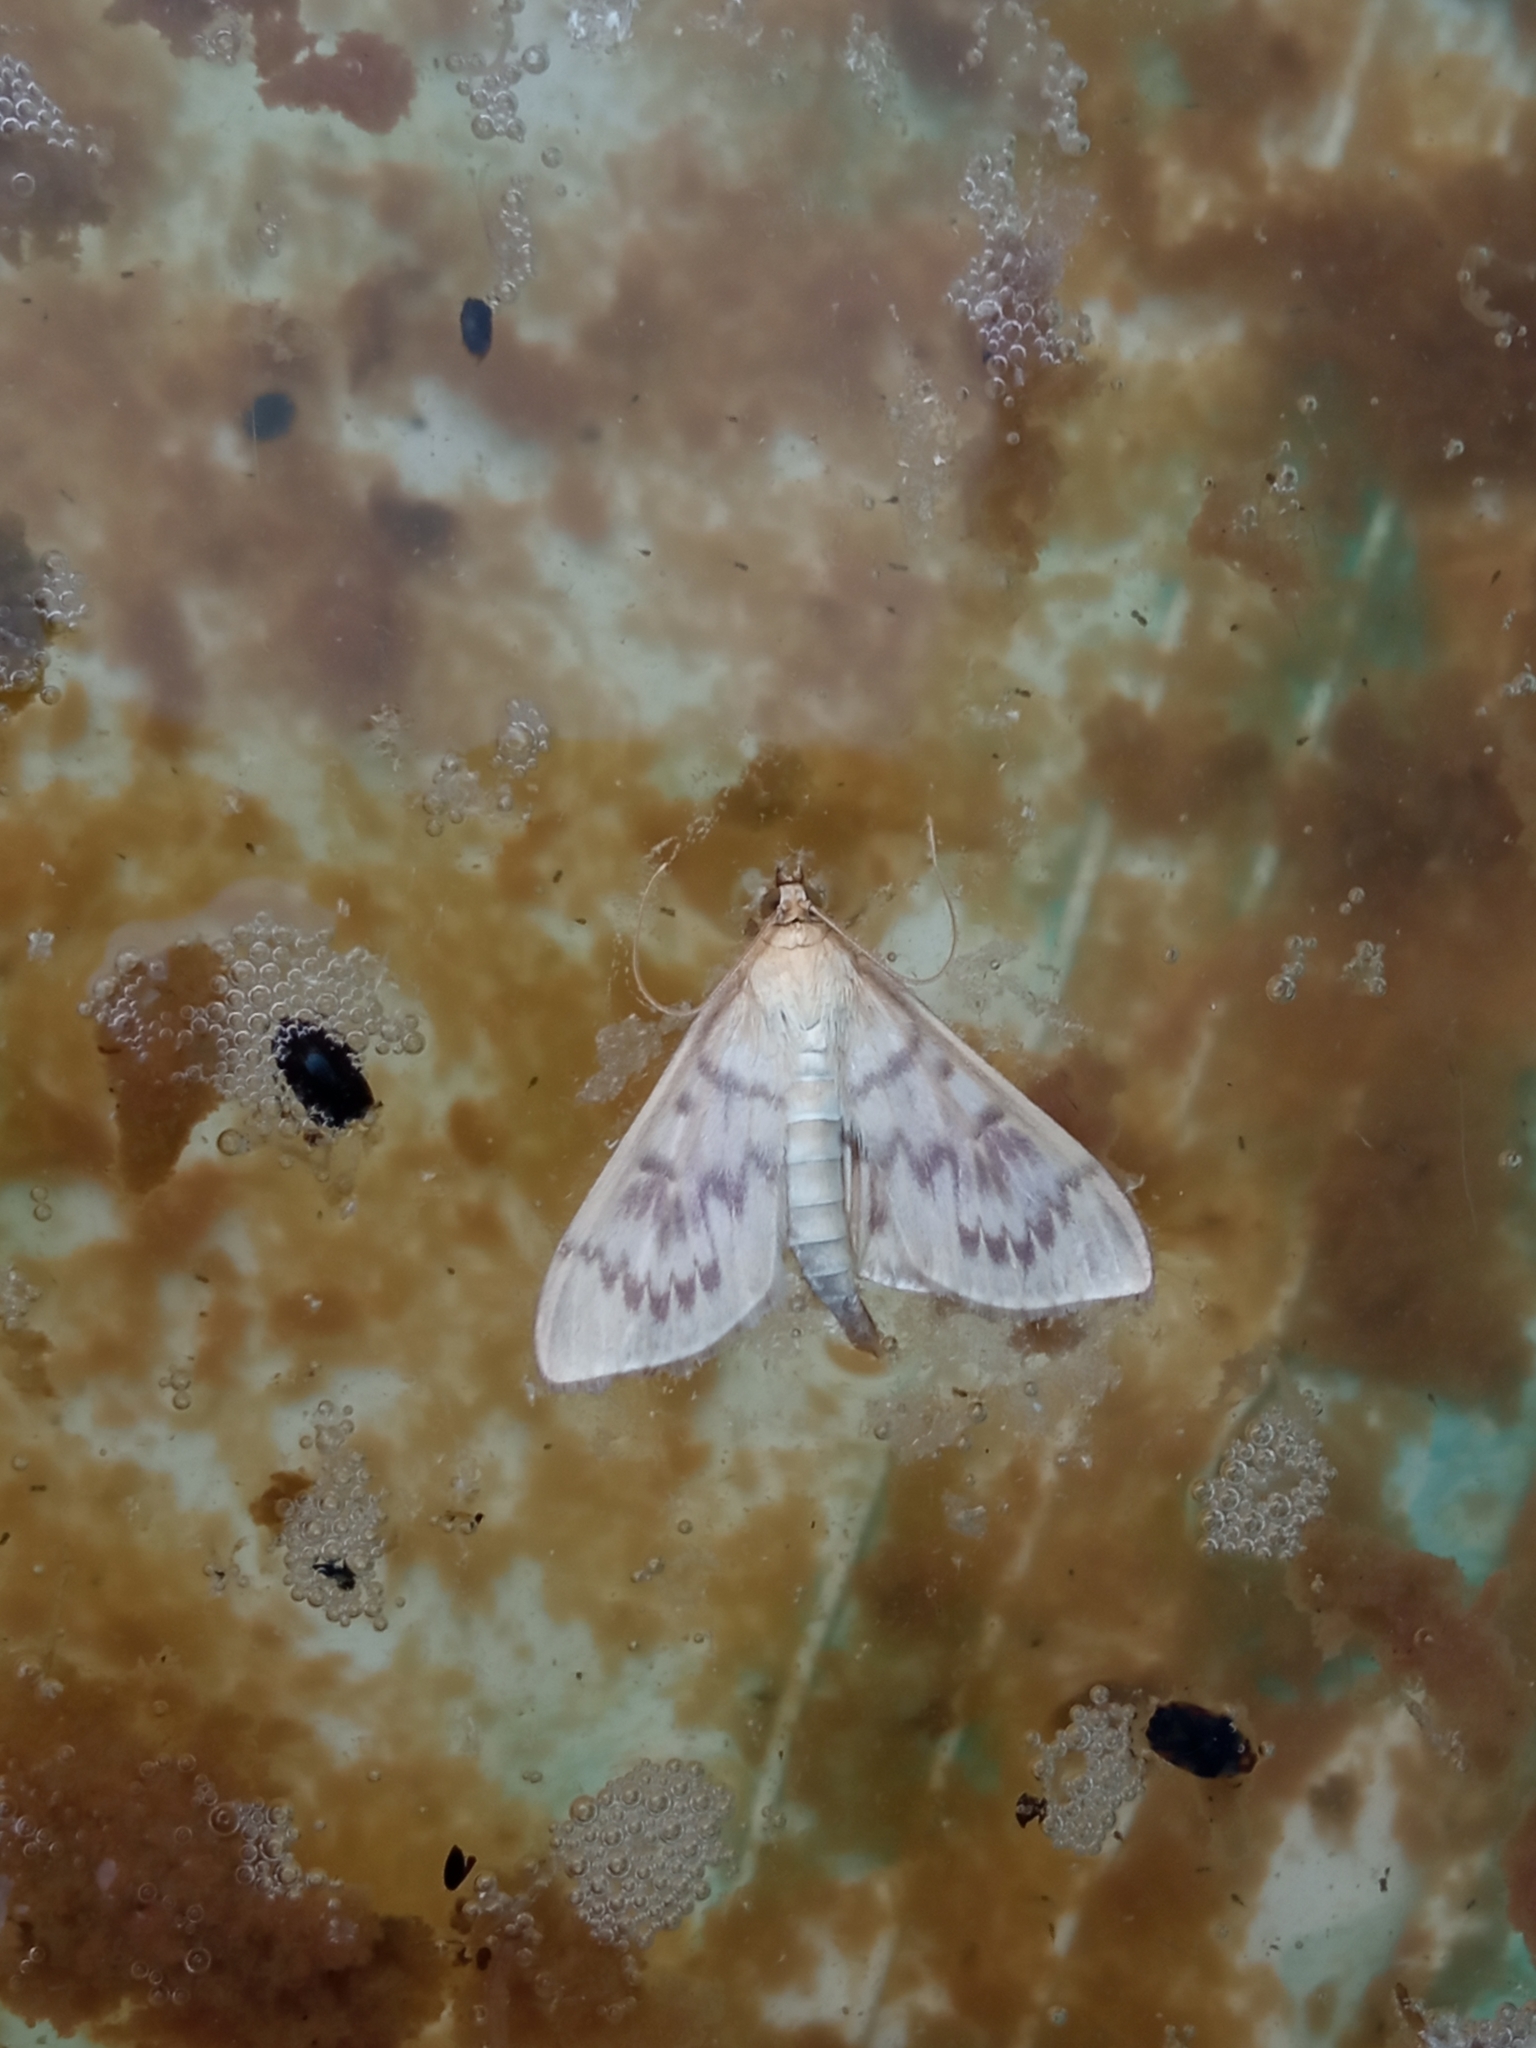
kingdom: Animalia
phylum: Arthropoda
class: Insecta
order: Lepidoptera
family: Crambidae
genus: Patania
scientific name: Patania ruralis
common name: Mother of pearl
